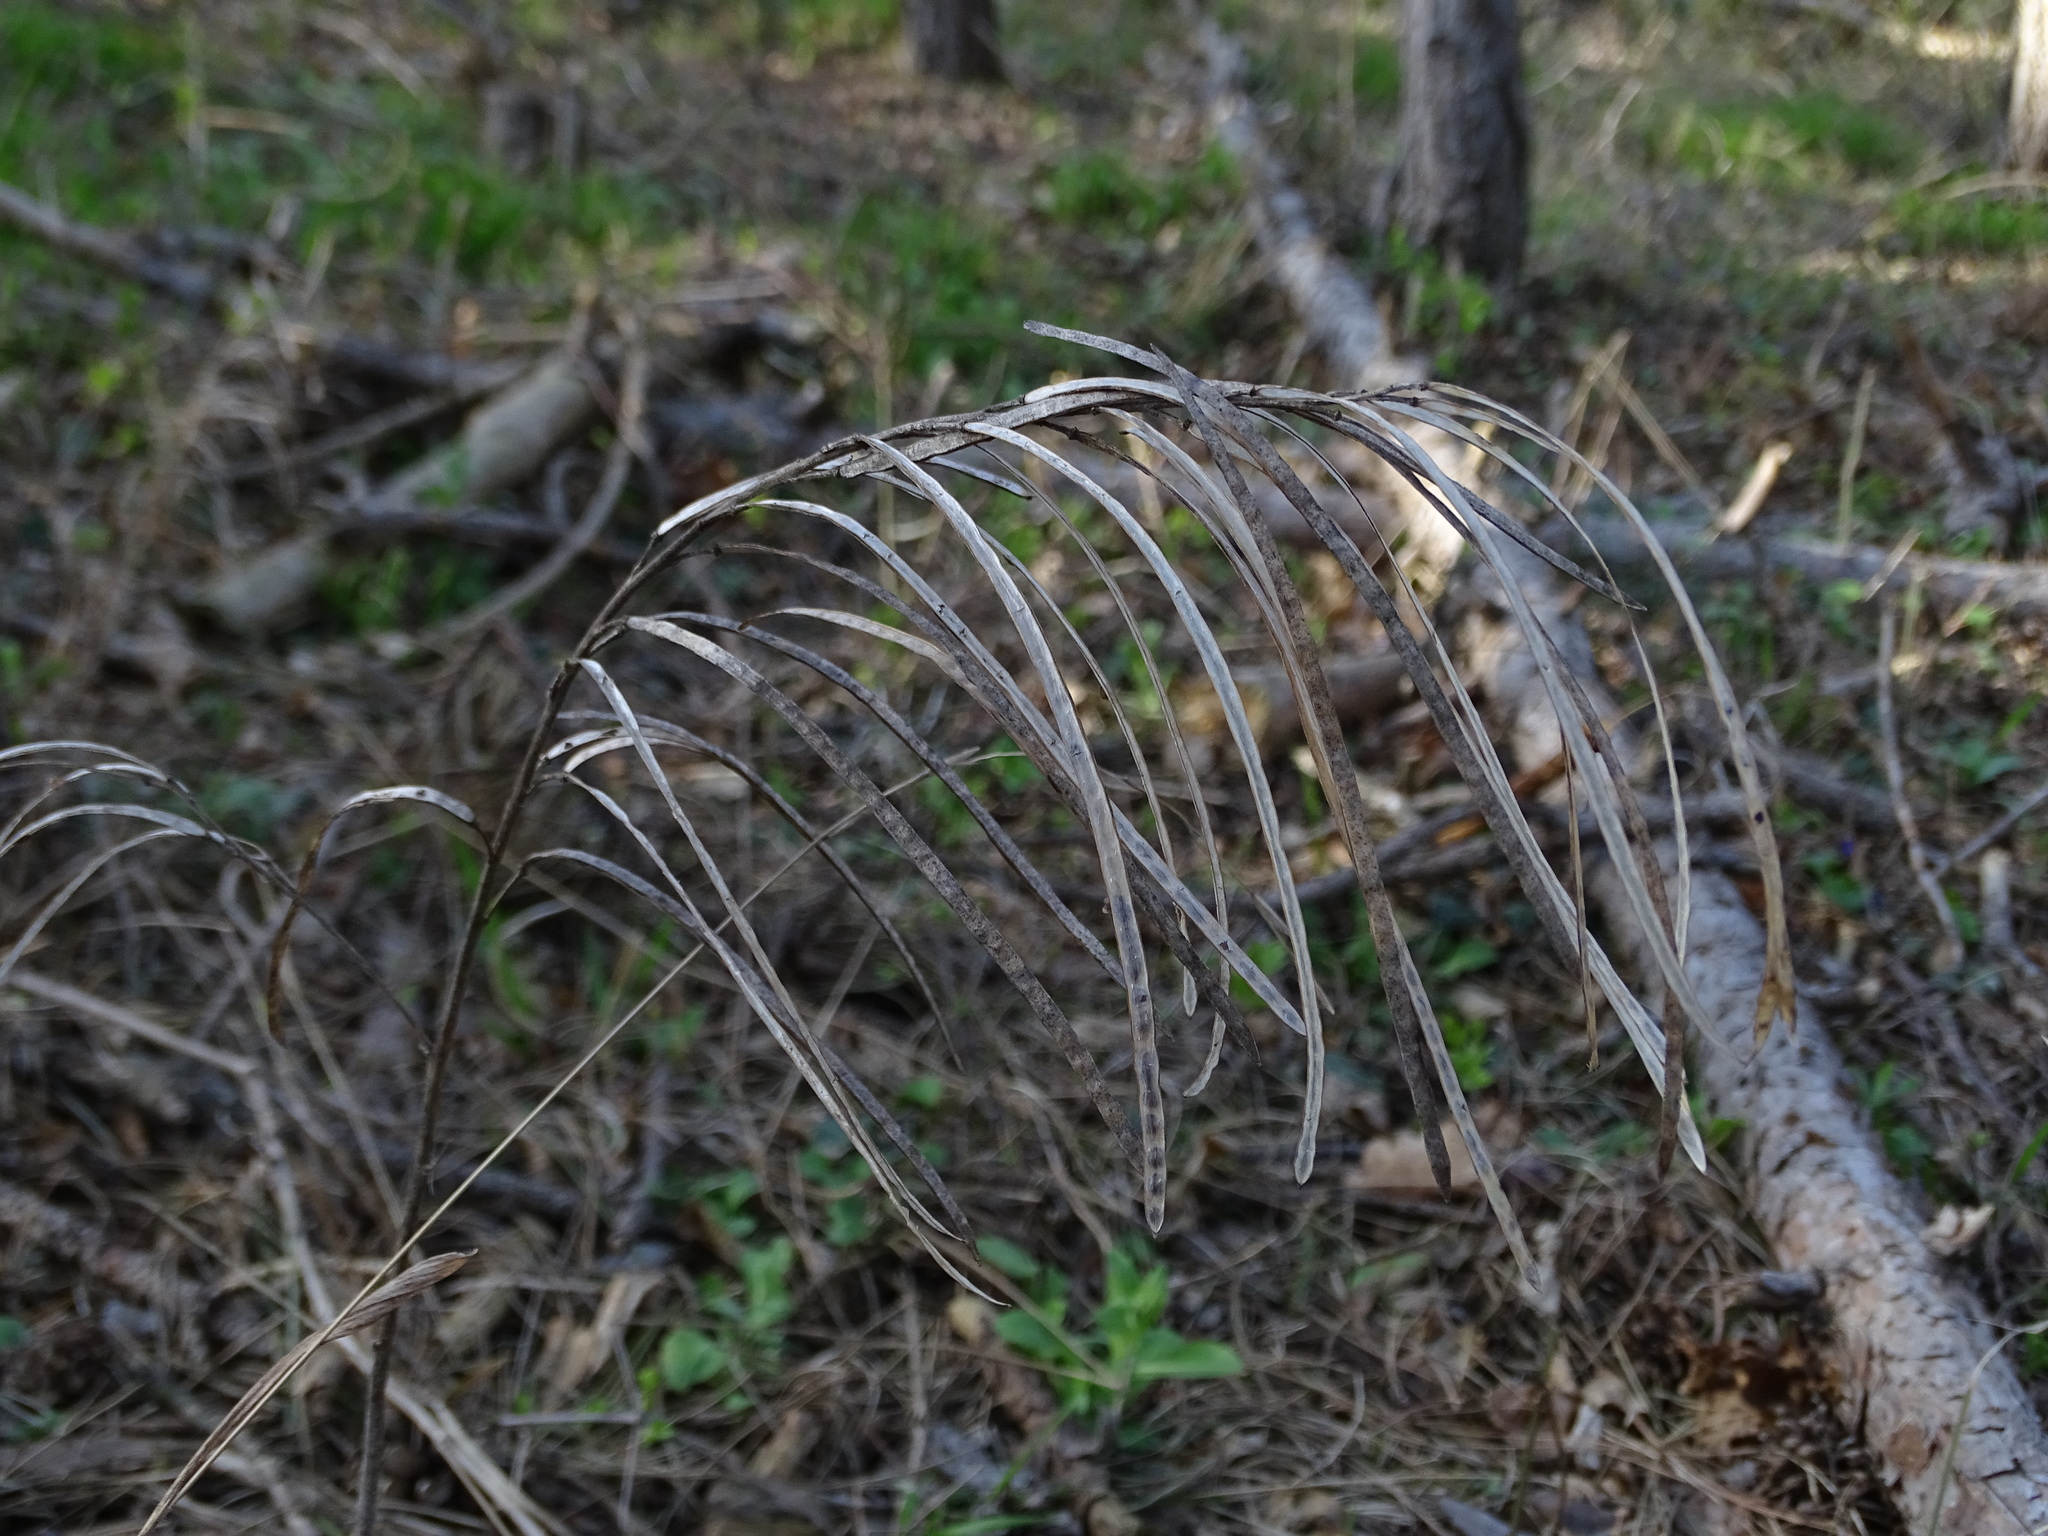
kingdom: Plantae
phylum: Tracheophyta
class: Magnoliopsida
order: Brassicales
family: Brassicaceae
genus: Pseudoturritis
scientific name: Pseudoturritis turrita
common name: Tower cress
